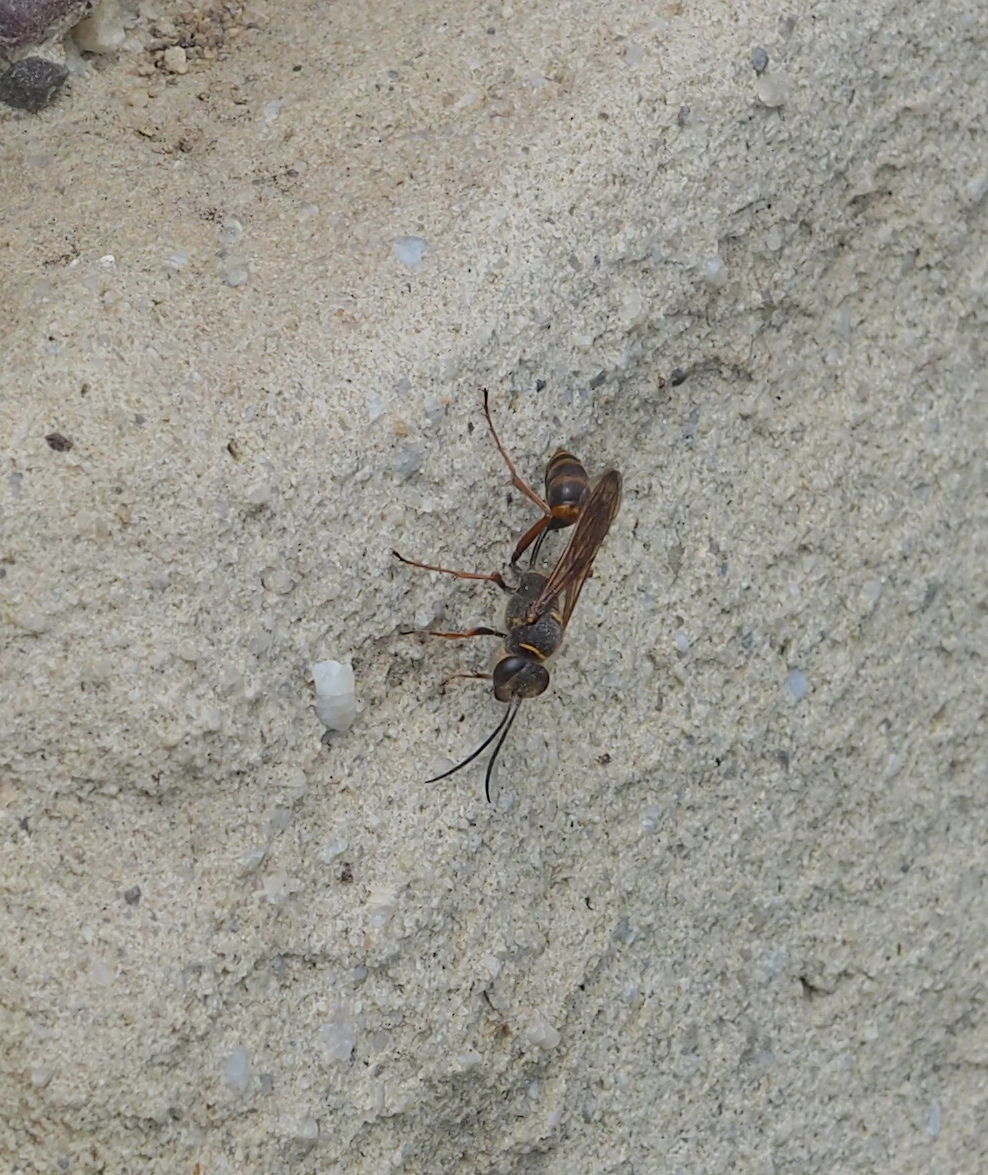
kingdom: Animalia
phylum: Arthropoda
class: Insecta
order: Hymenoptera
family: Sphecidae
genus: Sceliphron
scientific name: Sceliphron curvatum
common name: Pèlopèe
